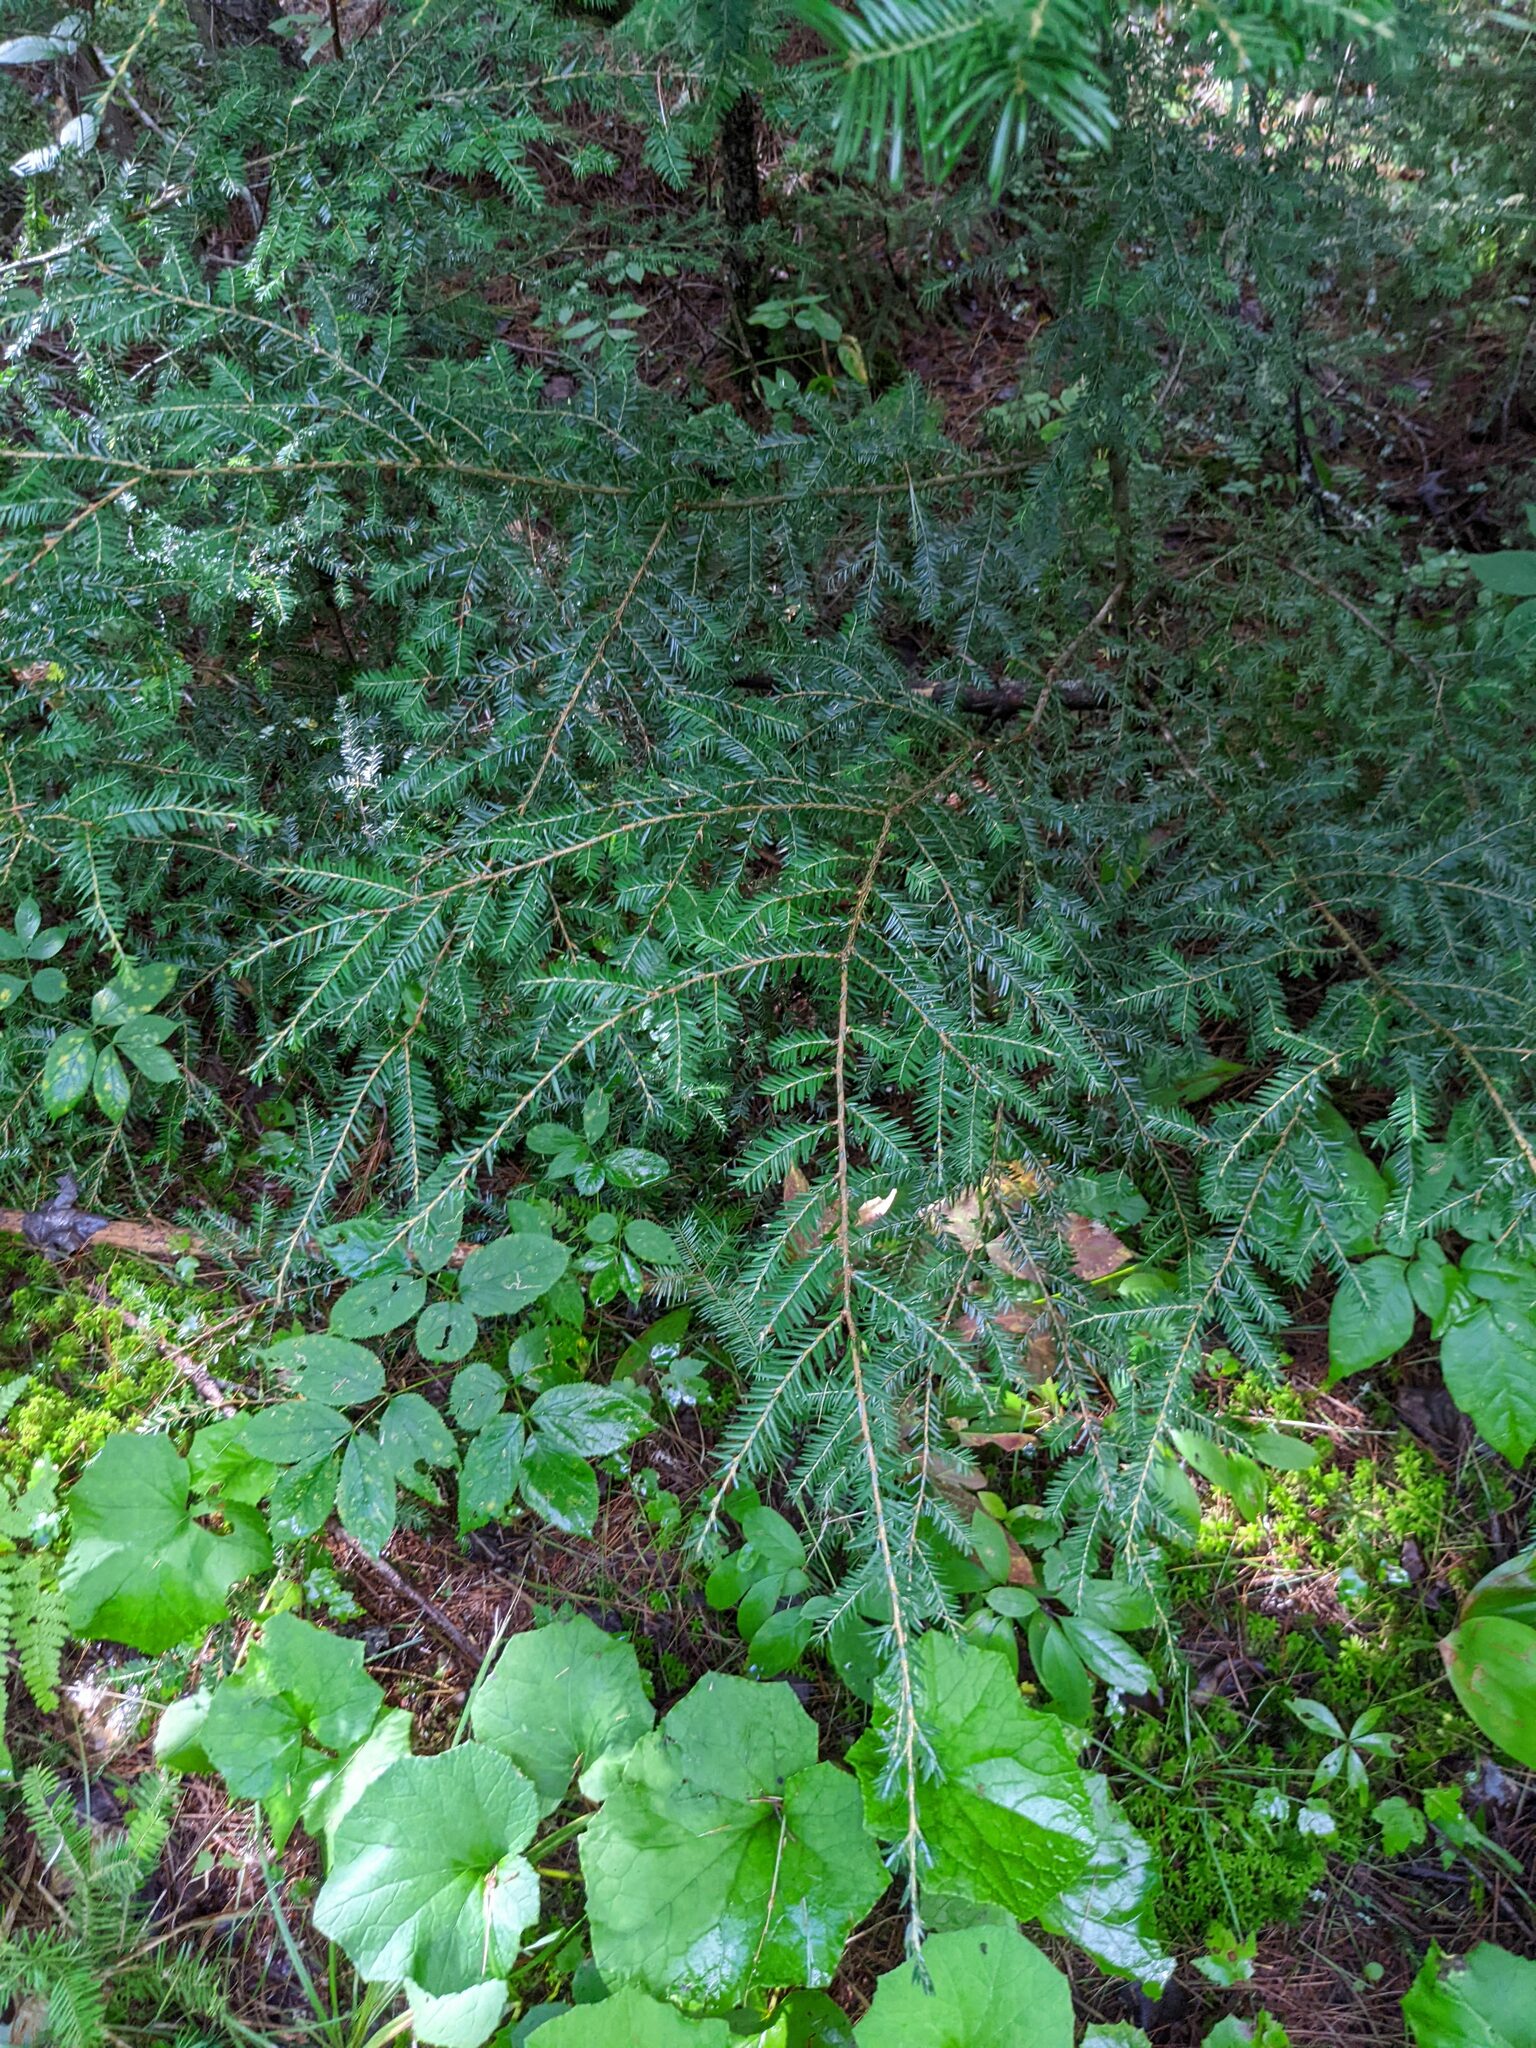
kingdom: Plantae
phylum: Tracheophyta
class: Pinopsida
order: Pinales
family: Pinaceae
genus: Tsuga
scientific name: Tsuga canadensis
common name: Eastern hemlock
